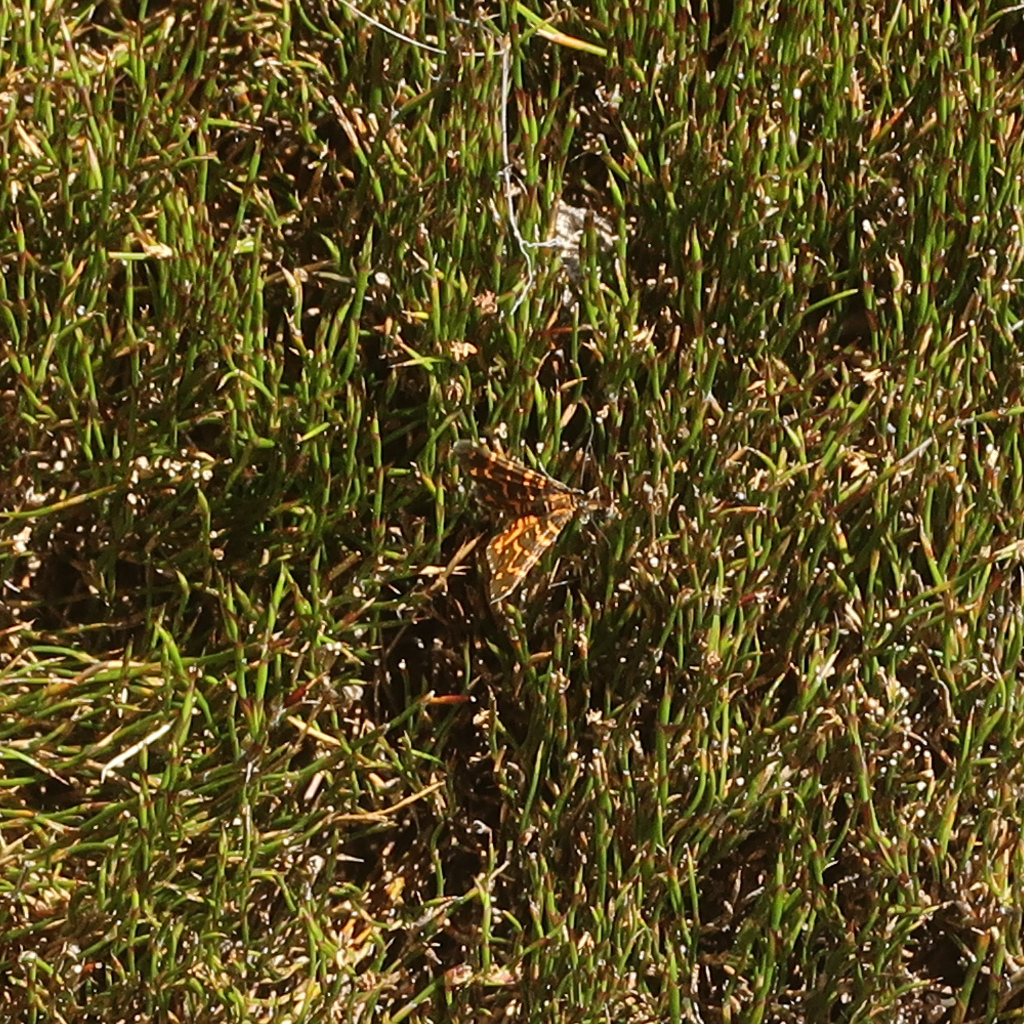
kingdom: Animalia
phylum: Arthropoda
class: Insecta
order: Lepidoptera
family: Geometridae
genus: Chrysolarentia
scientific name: Chrysolarentia chrysocyma
